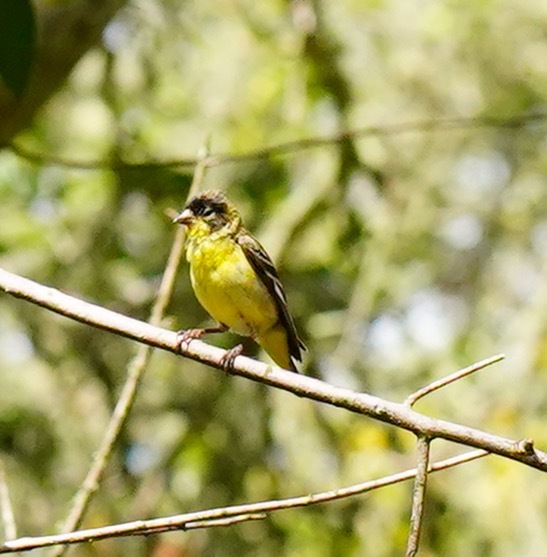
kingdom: Animalia
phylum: Chordata
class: Aves
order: Passeriformes
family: Fringillidae
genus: Spinus
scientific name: Spinus psaltria
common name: Lesser goldfinch
